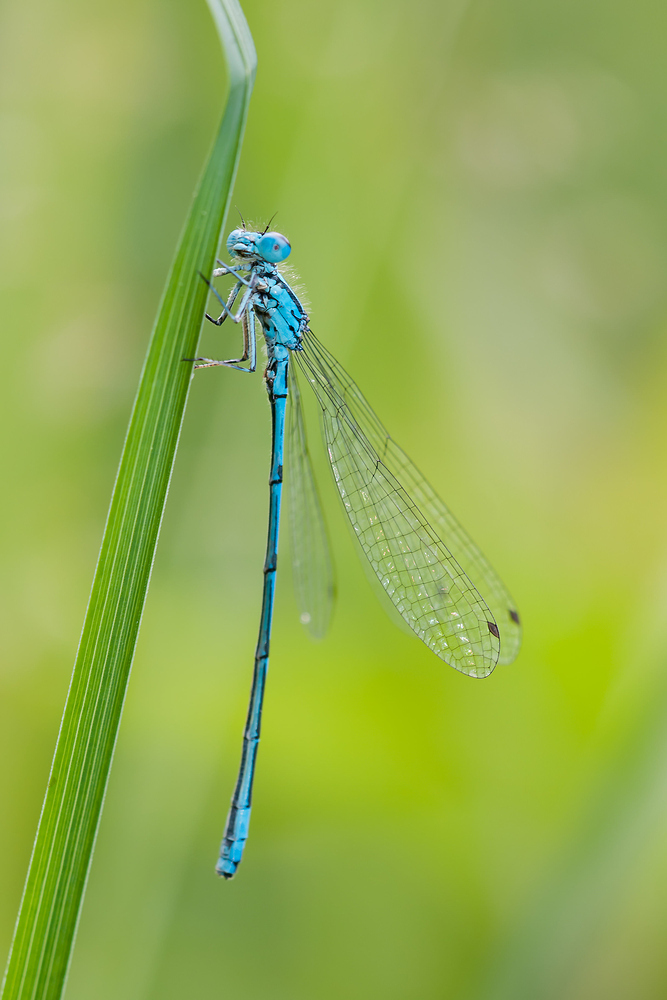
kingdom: Animalia
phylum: Arthropoda
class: Insecta
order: Odonata
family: Coenagrionidae
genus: Coenagrion
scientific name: Coenagrion puella
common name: Azure damselfly
